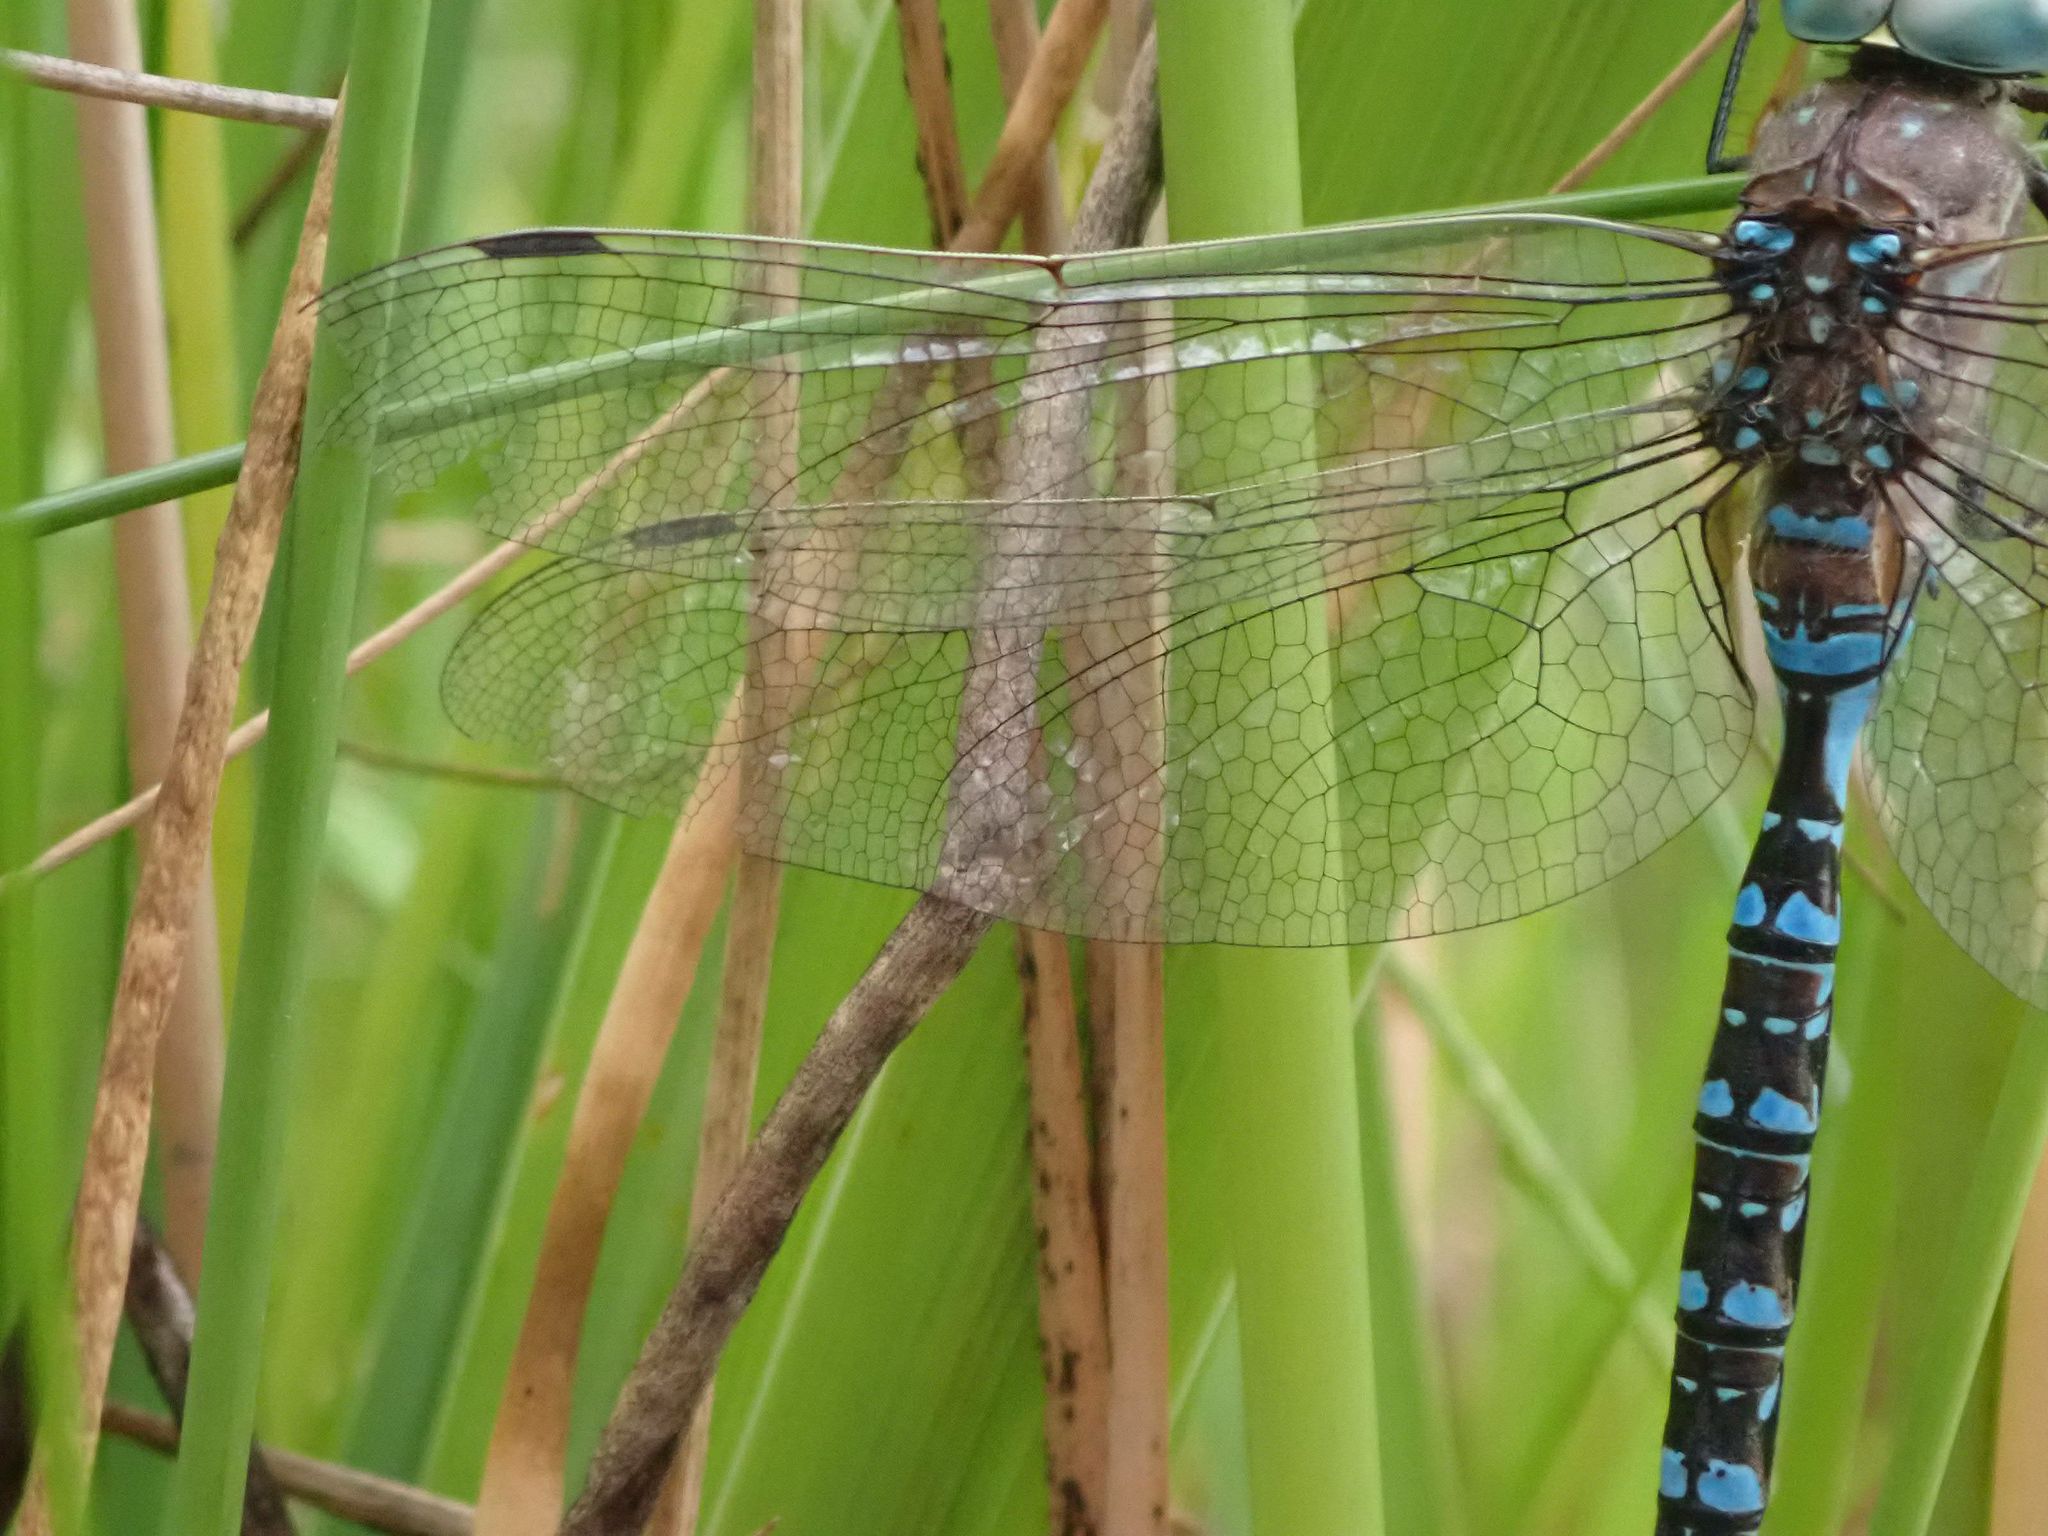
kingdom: Animalia
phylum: Arthropoda
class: Insecta
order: Odonata
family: Aeshnidae
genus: Aeshna
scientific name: Aeshna interrupta
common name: Variable darner
